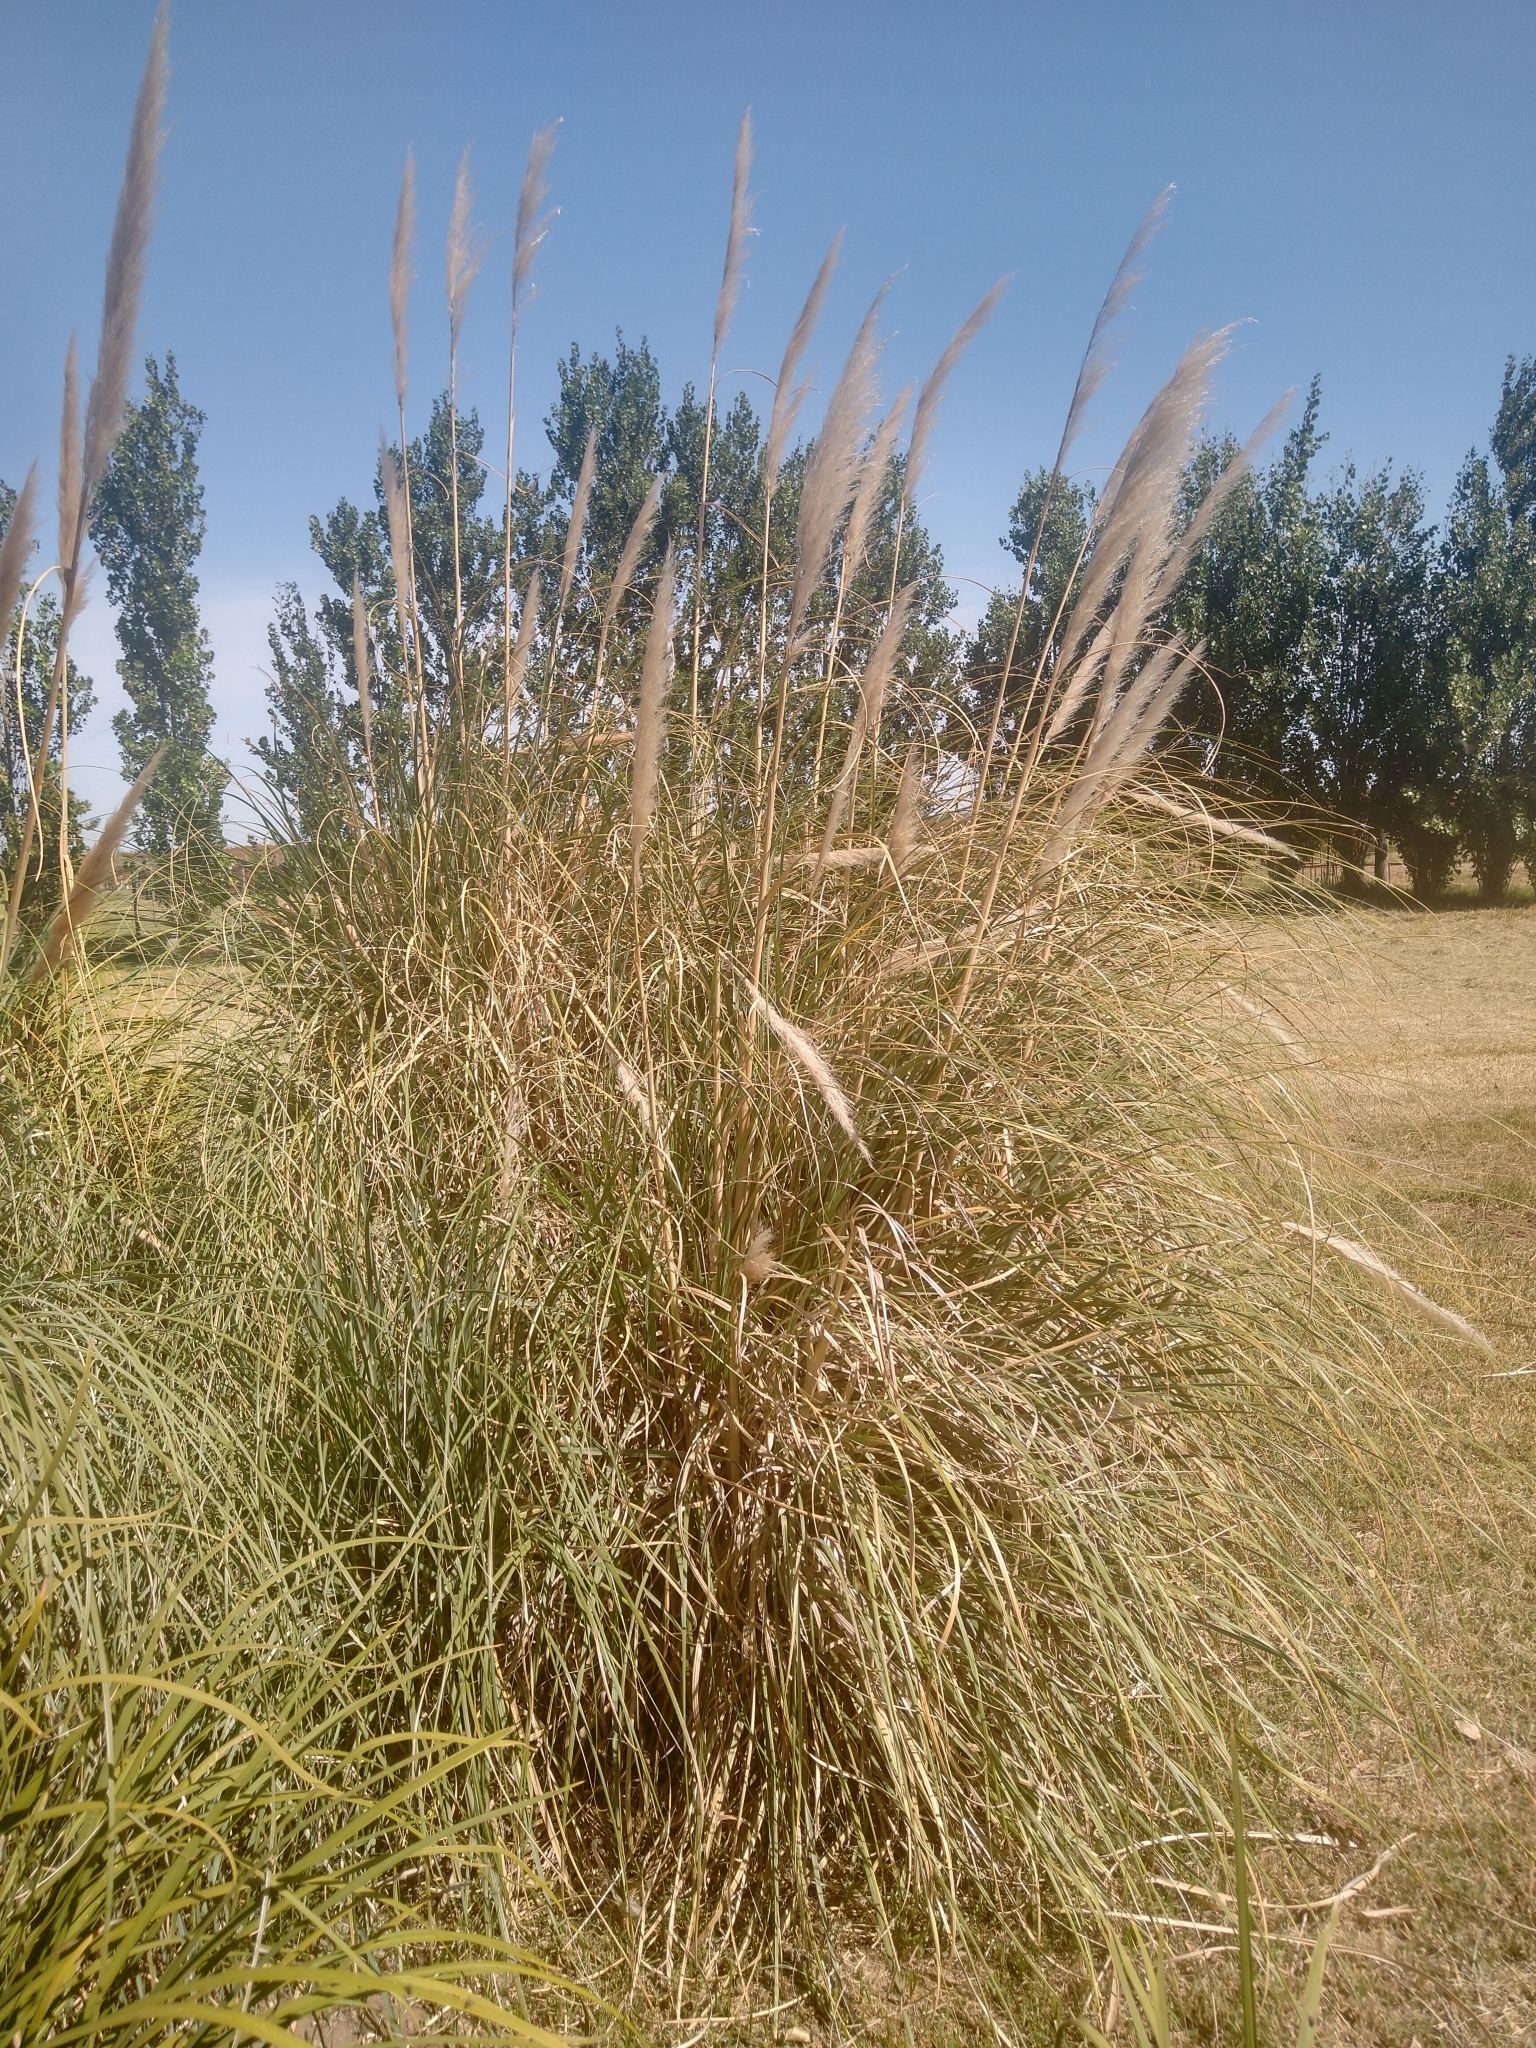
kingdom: Plantae
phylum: Tracheophyta
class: Liliopsida
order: Poales
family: Poaceae
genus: Cortaderia
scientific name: Cortaderia selloana
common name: Uruguayan pampas grass
